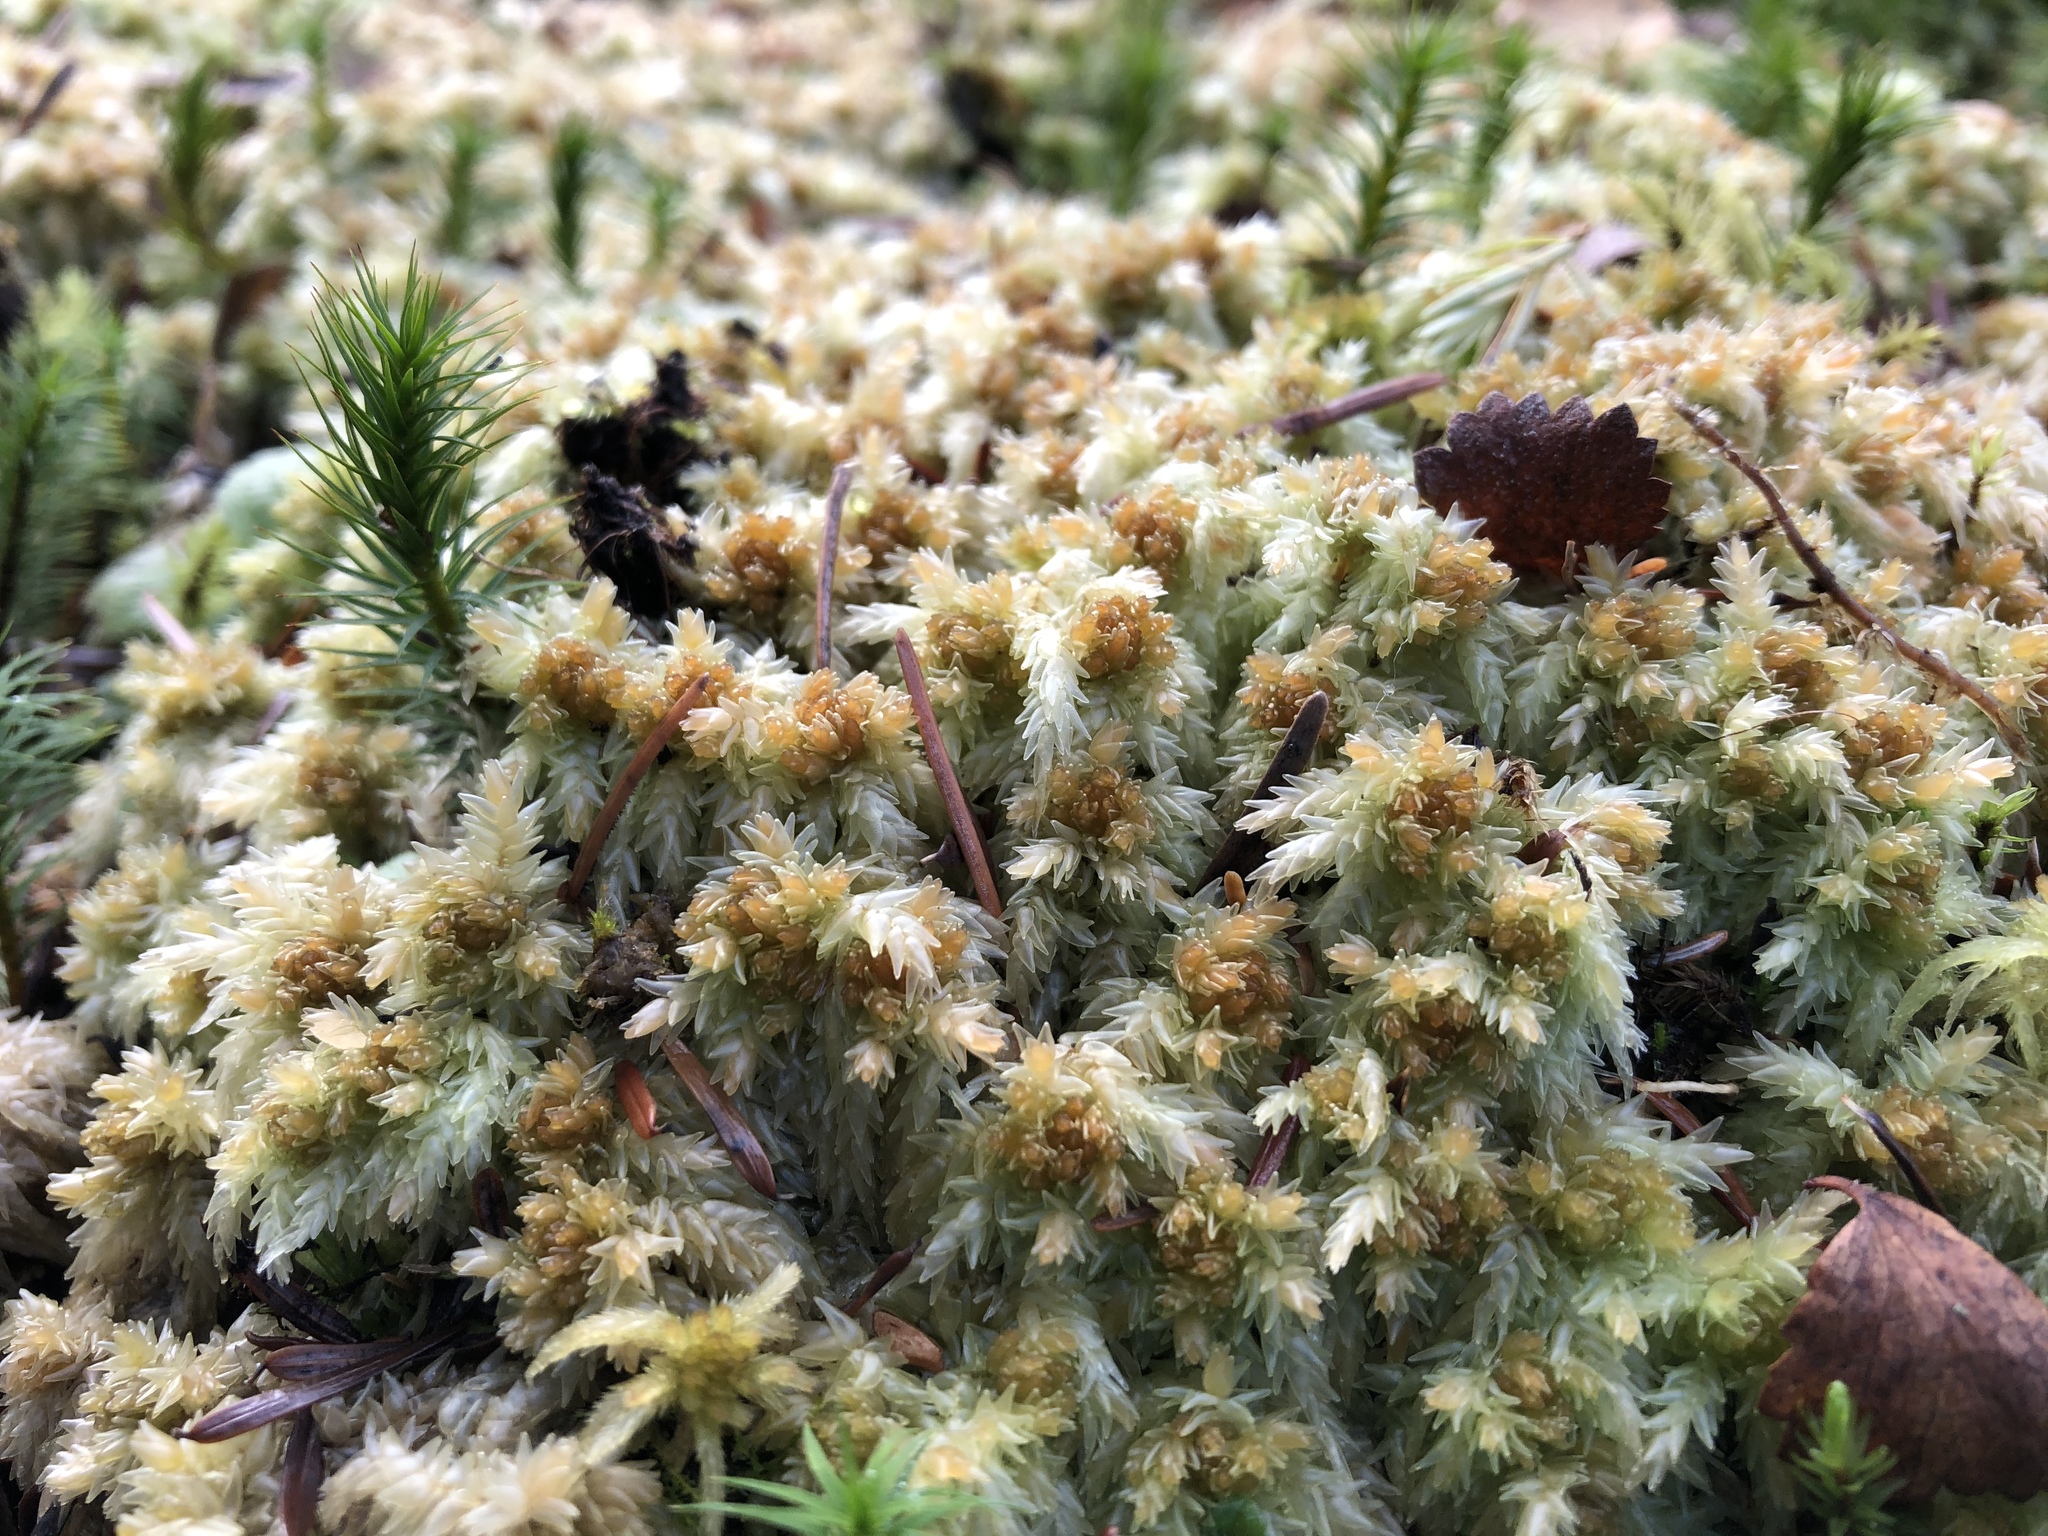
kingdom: Plantae
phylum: Bryophyta
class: Sphagnopsida
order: Sphagnales
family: Sphagnaceae
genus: Sphagnum
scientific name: Sphagnum palustre
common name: Blunt-leaved bog-moss
